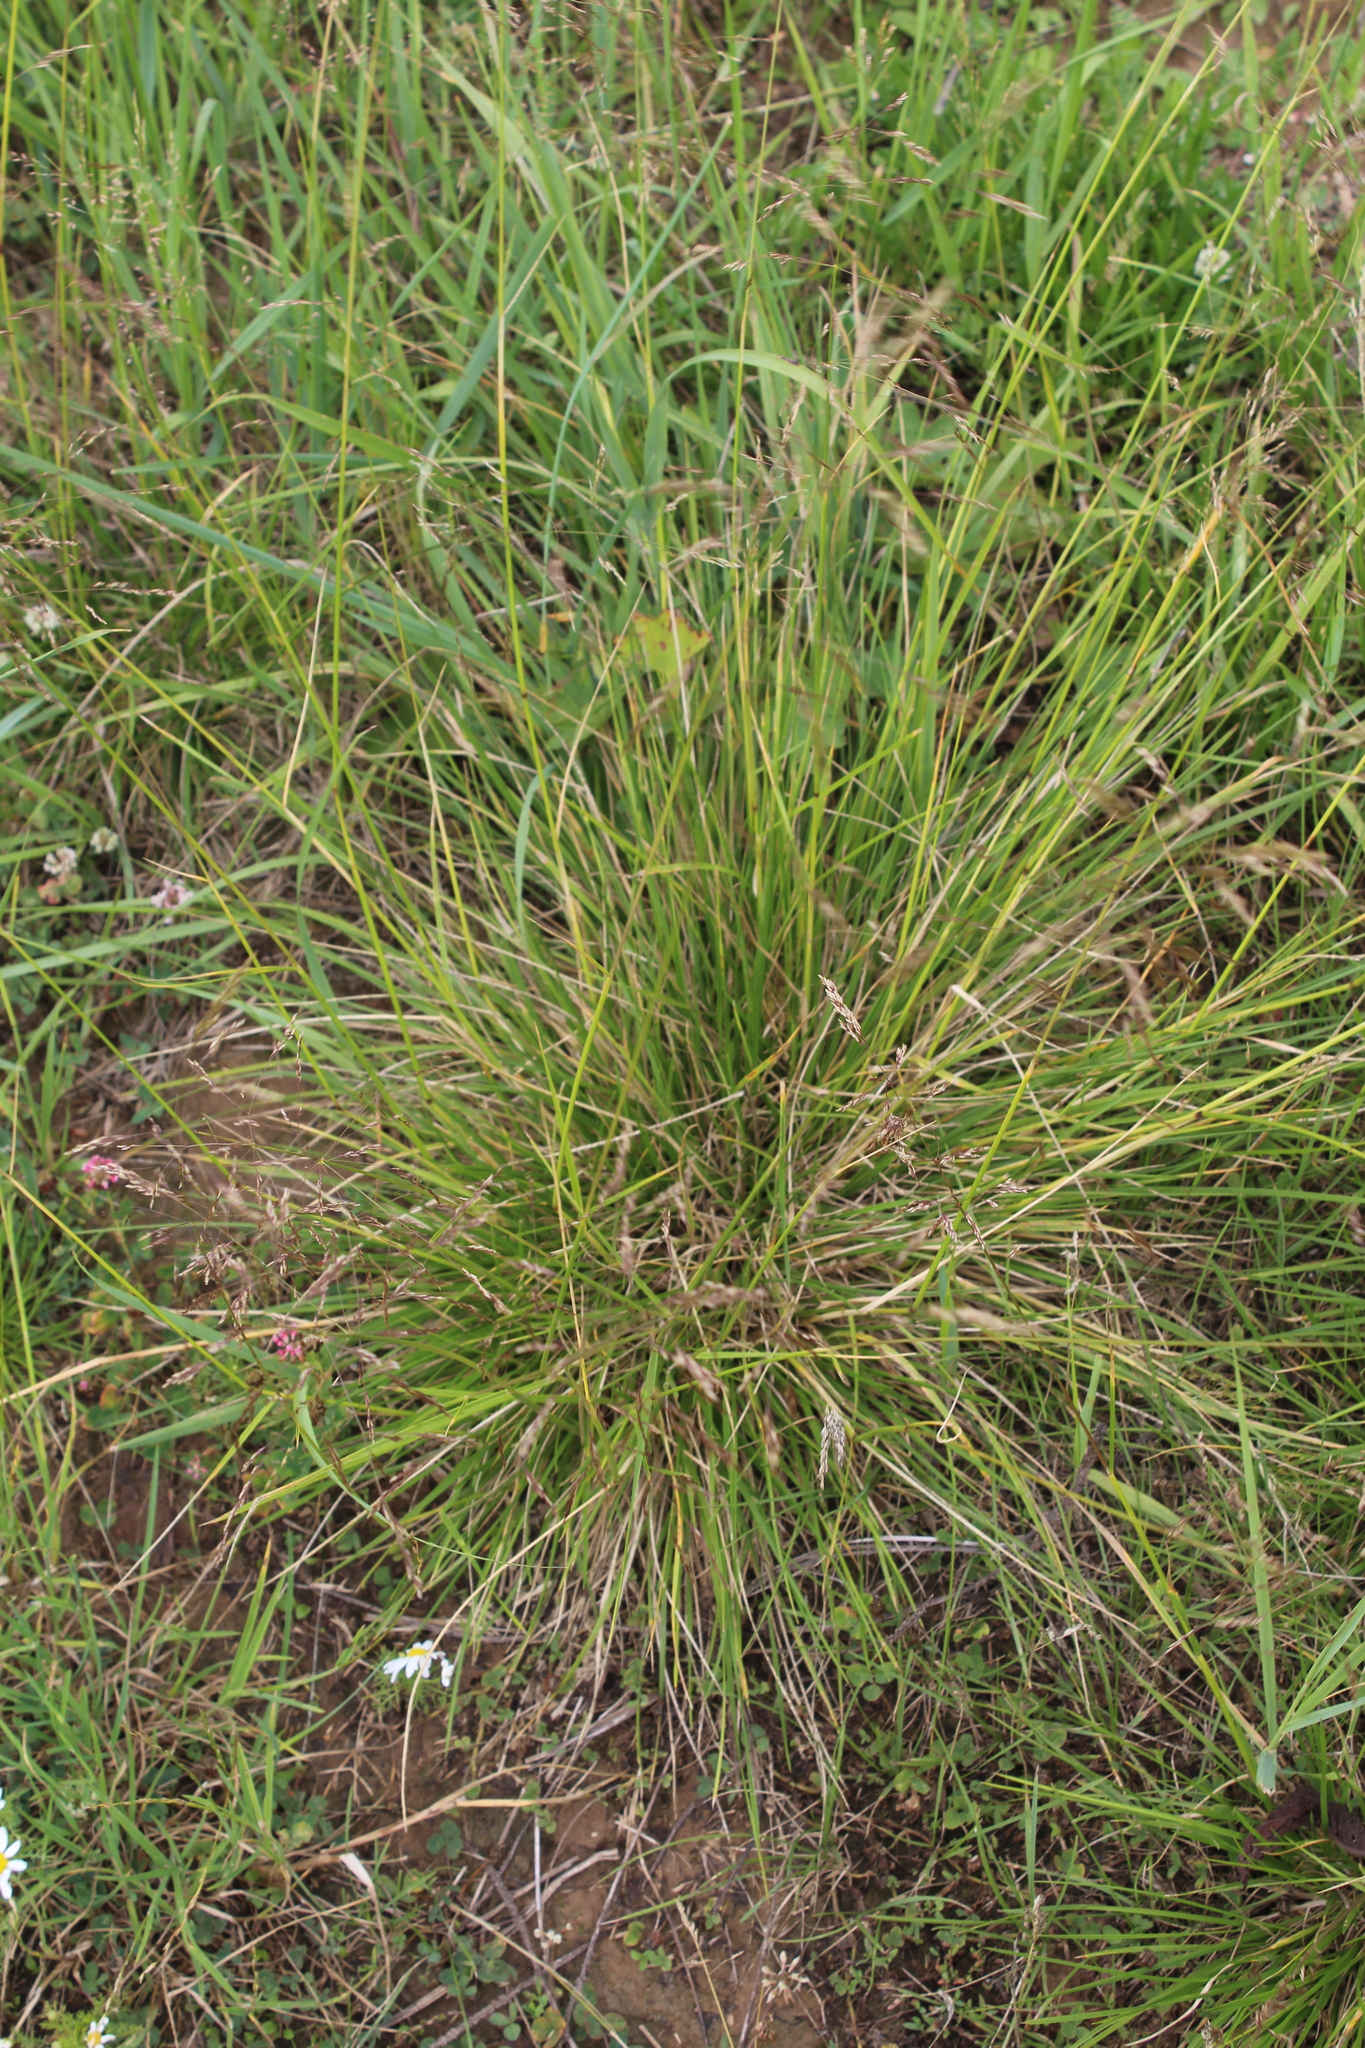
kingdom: Plantae
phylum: Tracheophyta
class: Liliopsida
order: Poales
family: Poaceae
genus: Deschampsia
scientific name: Deschampsia cespitosa
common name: Tufted hair-grass
